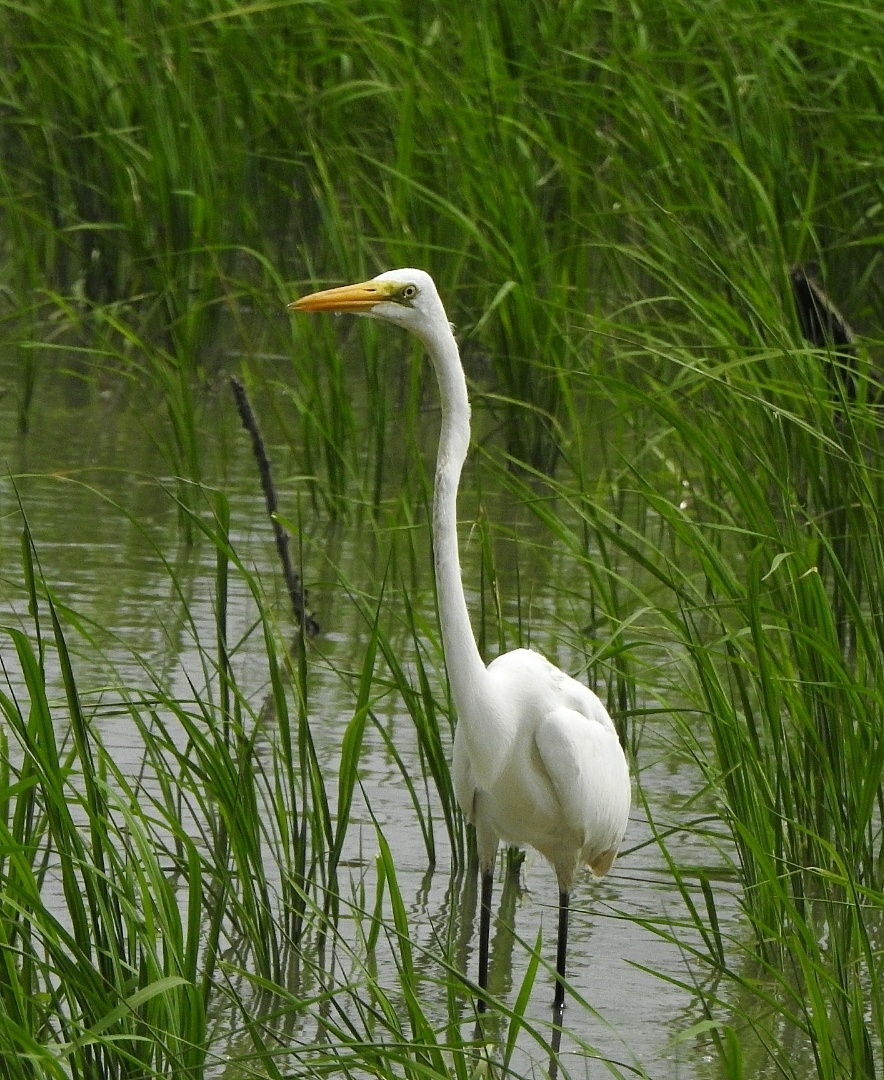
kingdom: Animalia
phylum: Chordata
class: Aves
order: Pelecaniformes
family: Ardeidae
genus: Ardea
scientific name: Ardea alba
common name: Great egret
